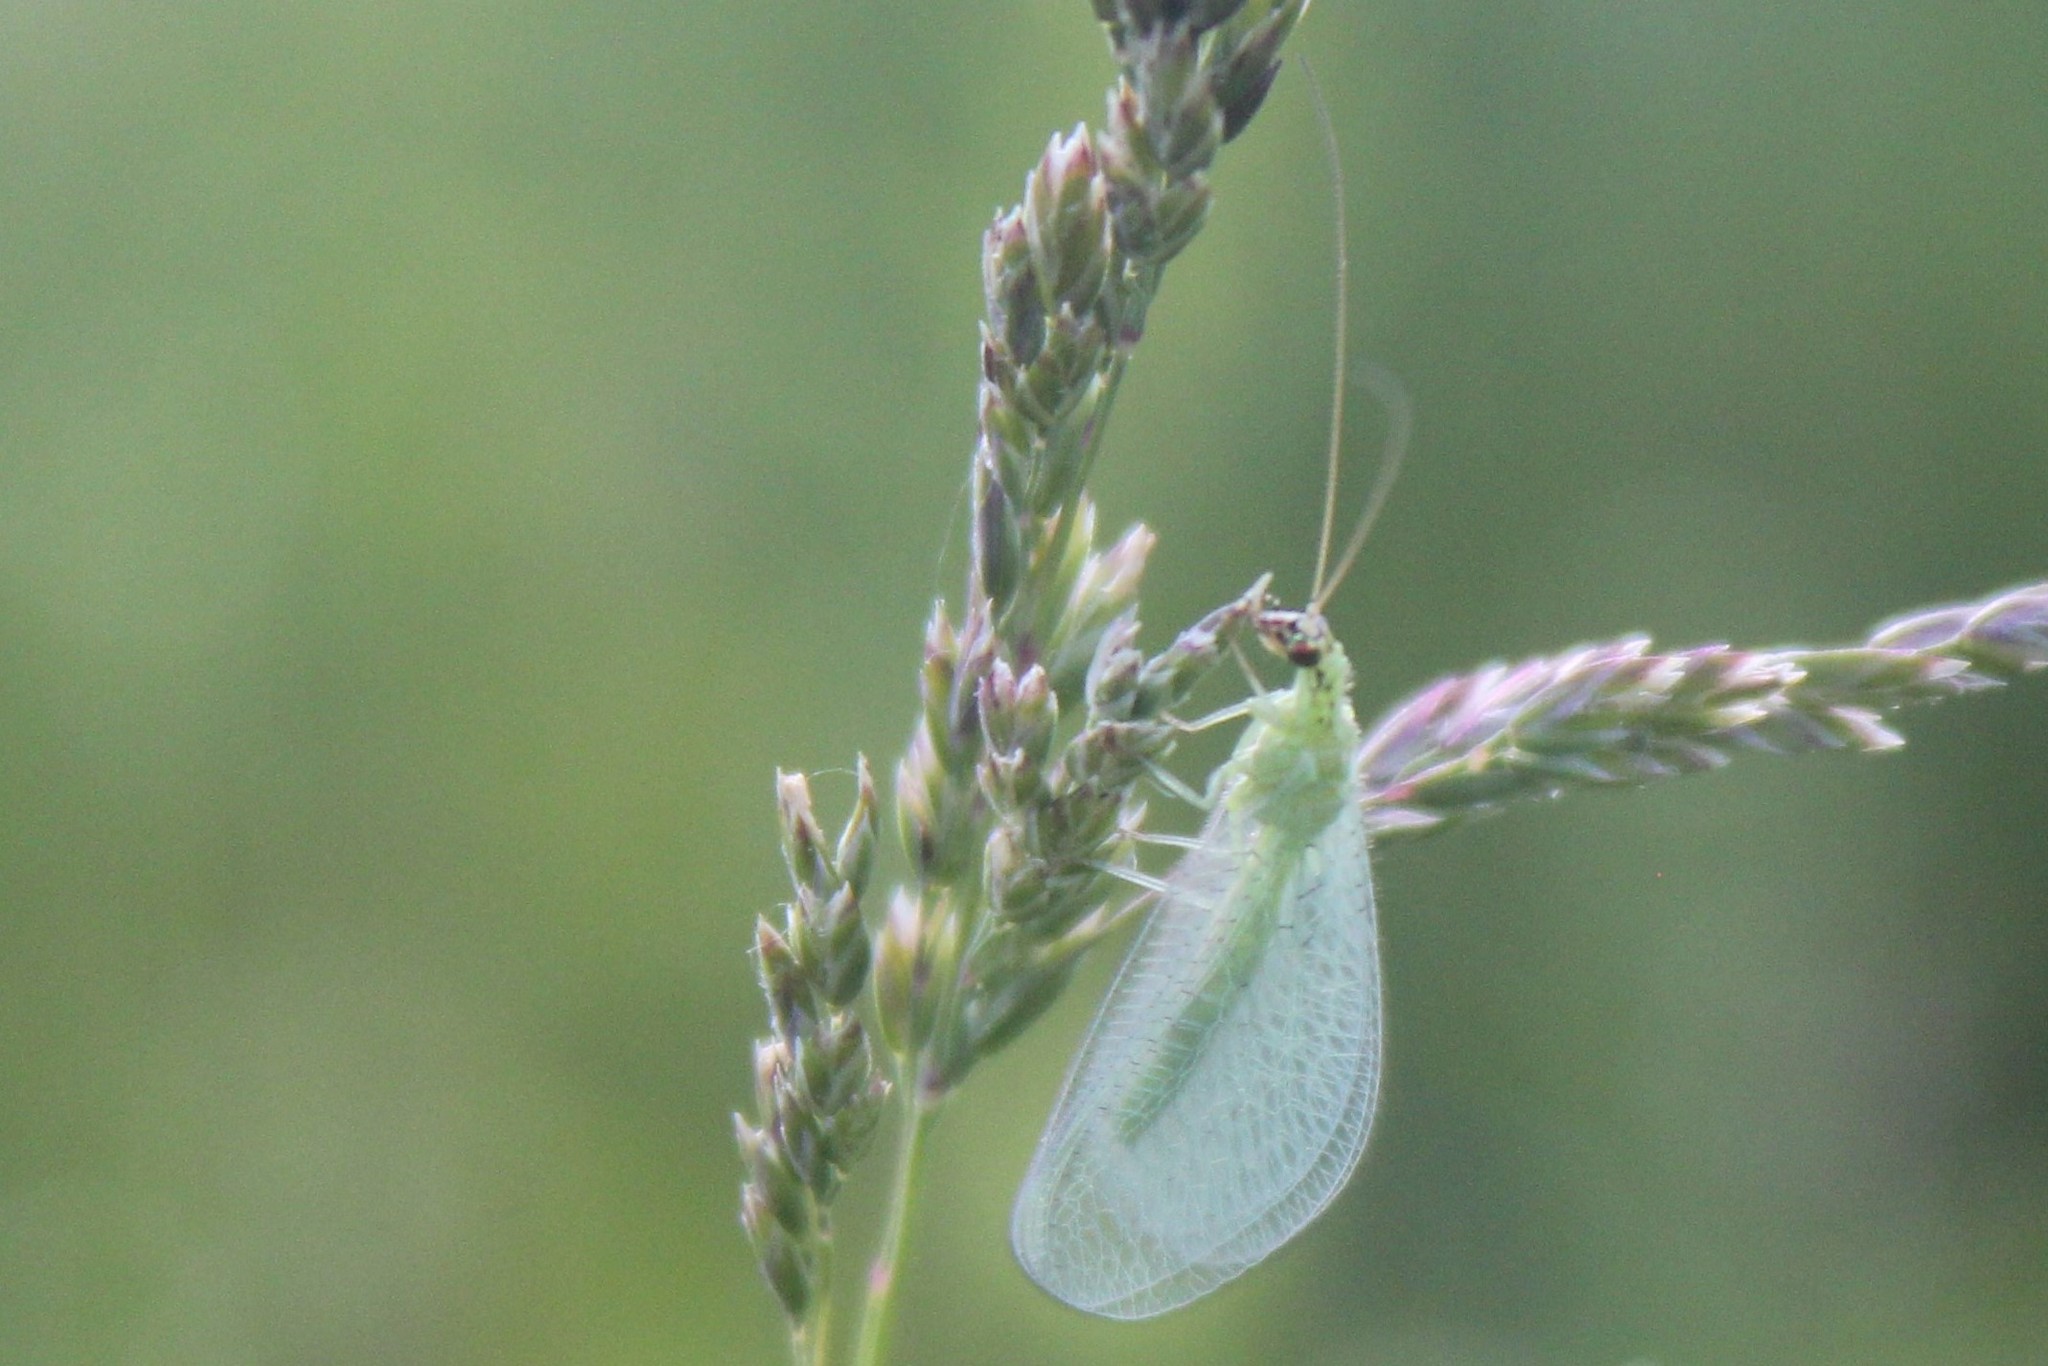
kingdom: Animalia
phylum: Arthropoda
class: Insecta
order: Neuroptera
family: Chrysopidae
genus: Chrysopa
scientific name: Chrysopa oculata
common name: Golden-eyed lacewing
